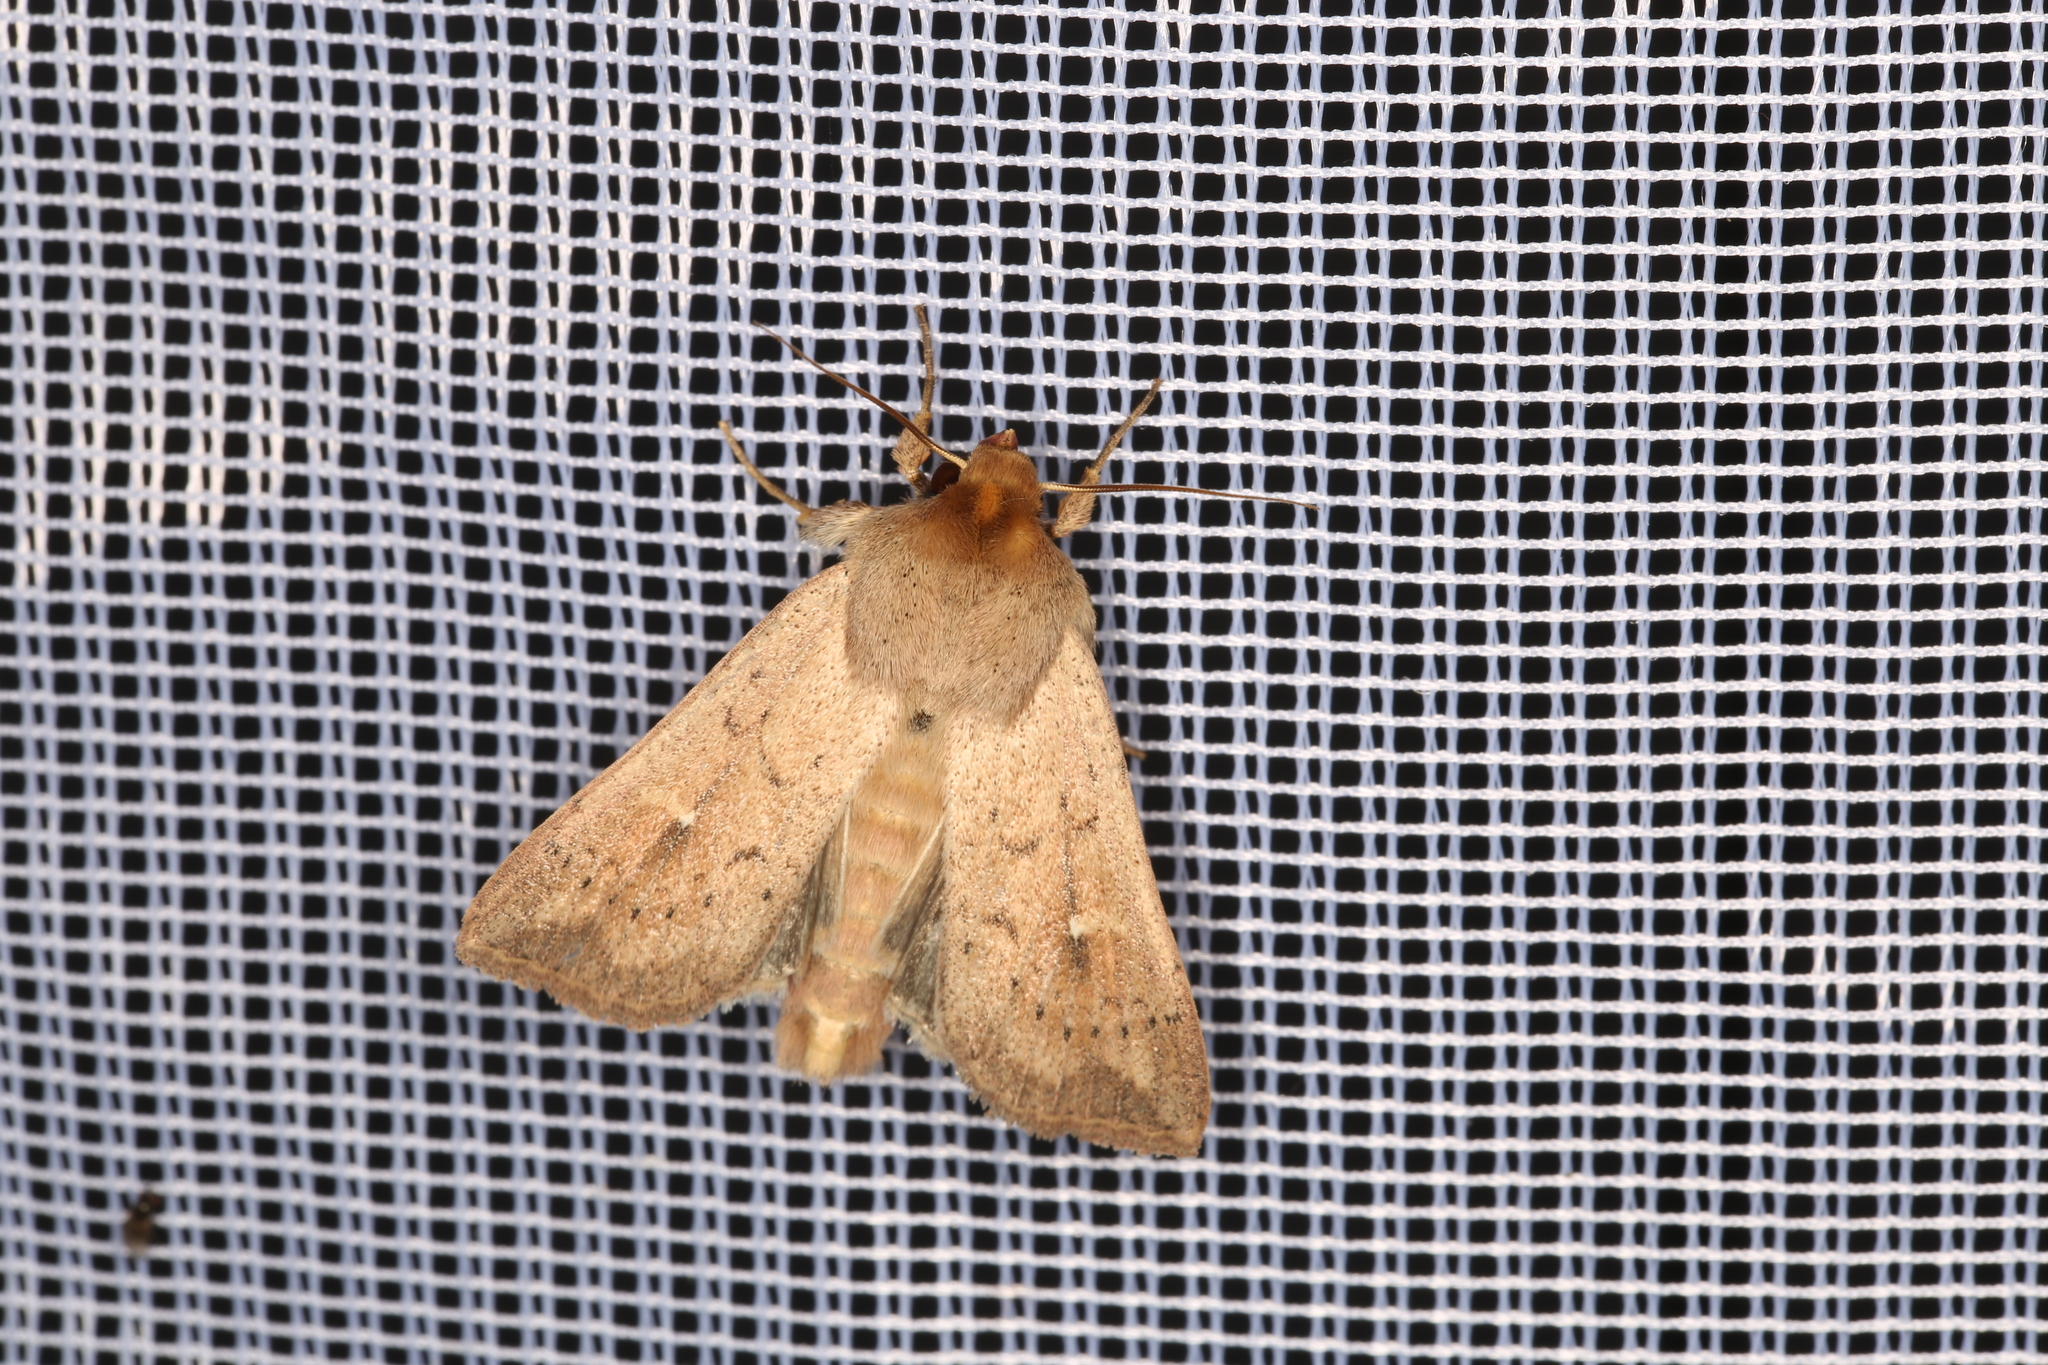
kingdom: Animalia
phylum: Arthropoda
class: Insecta
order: Lepidoptera
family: Noctuidae
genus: Mythimna
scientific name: Mythimna ferrago
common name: Clay
